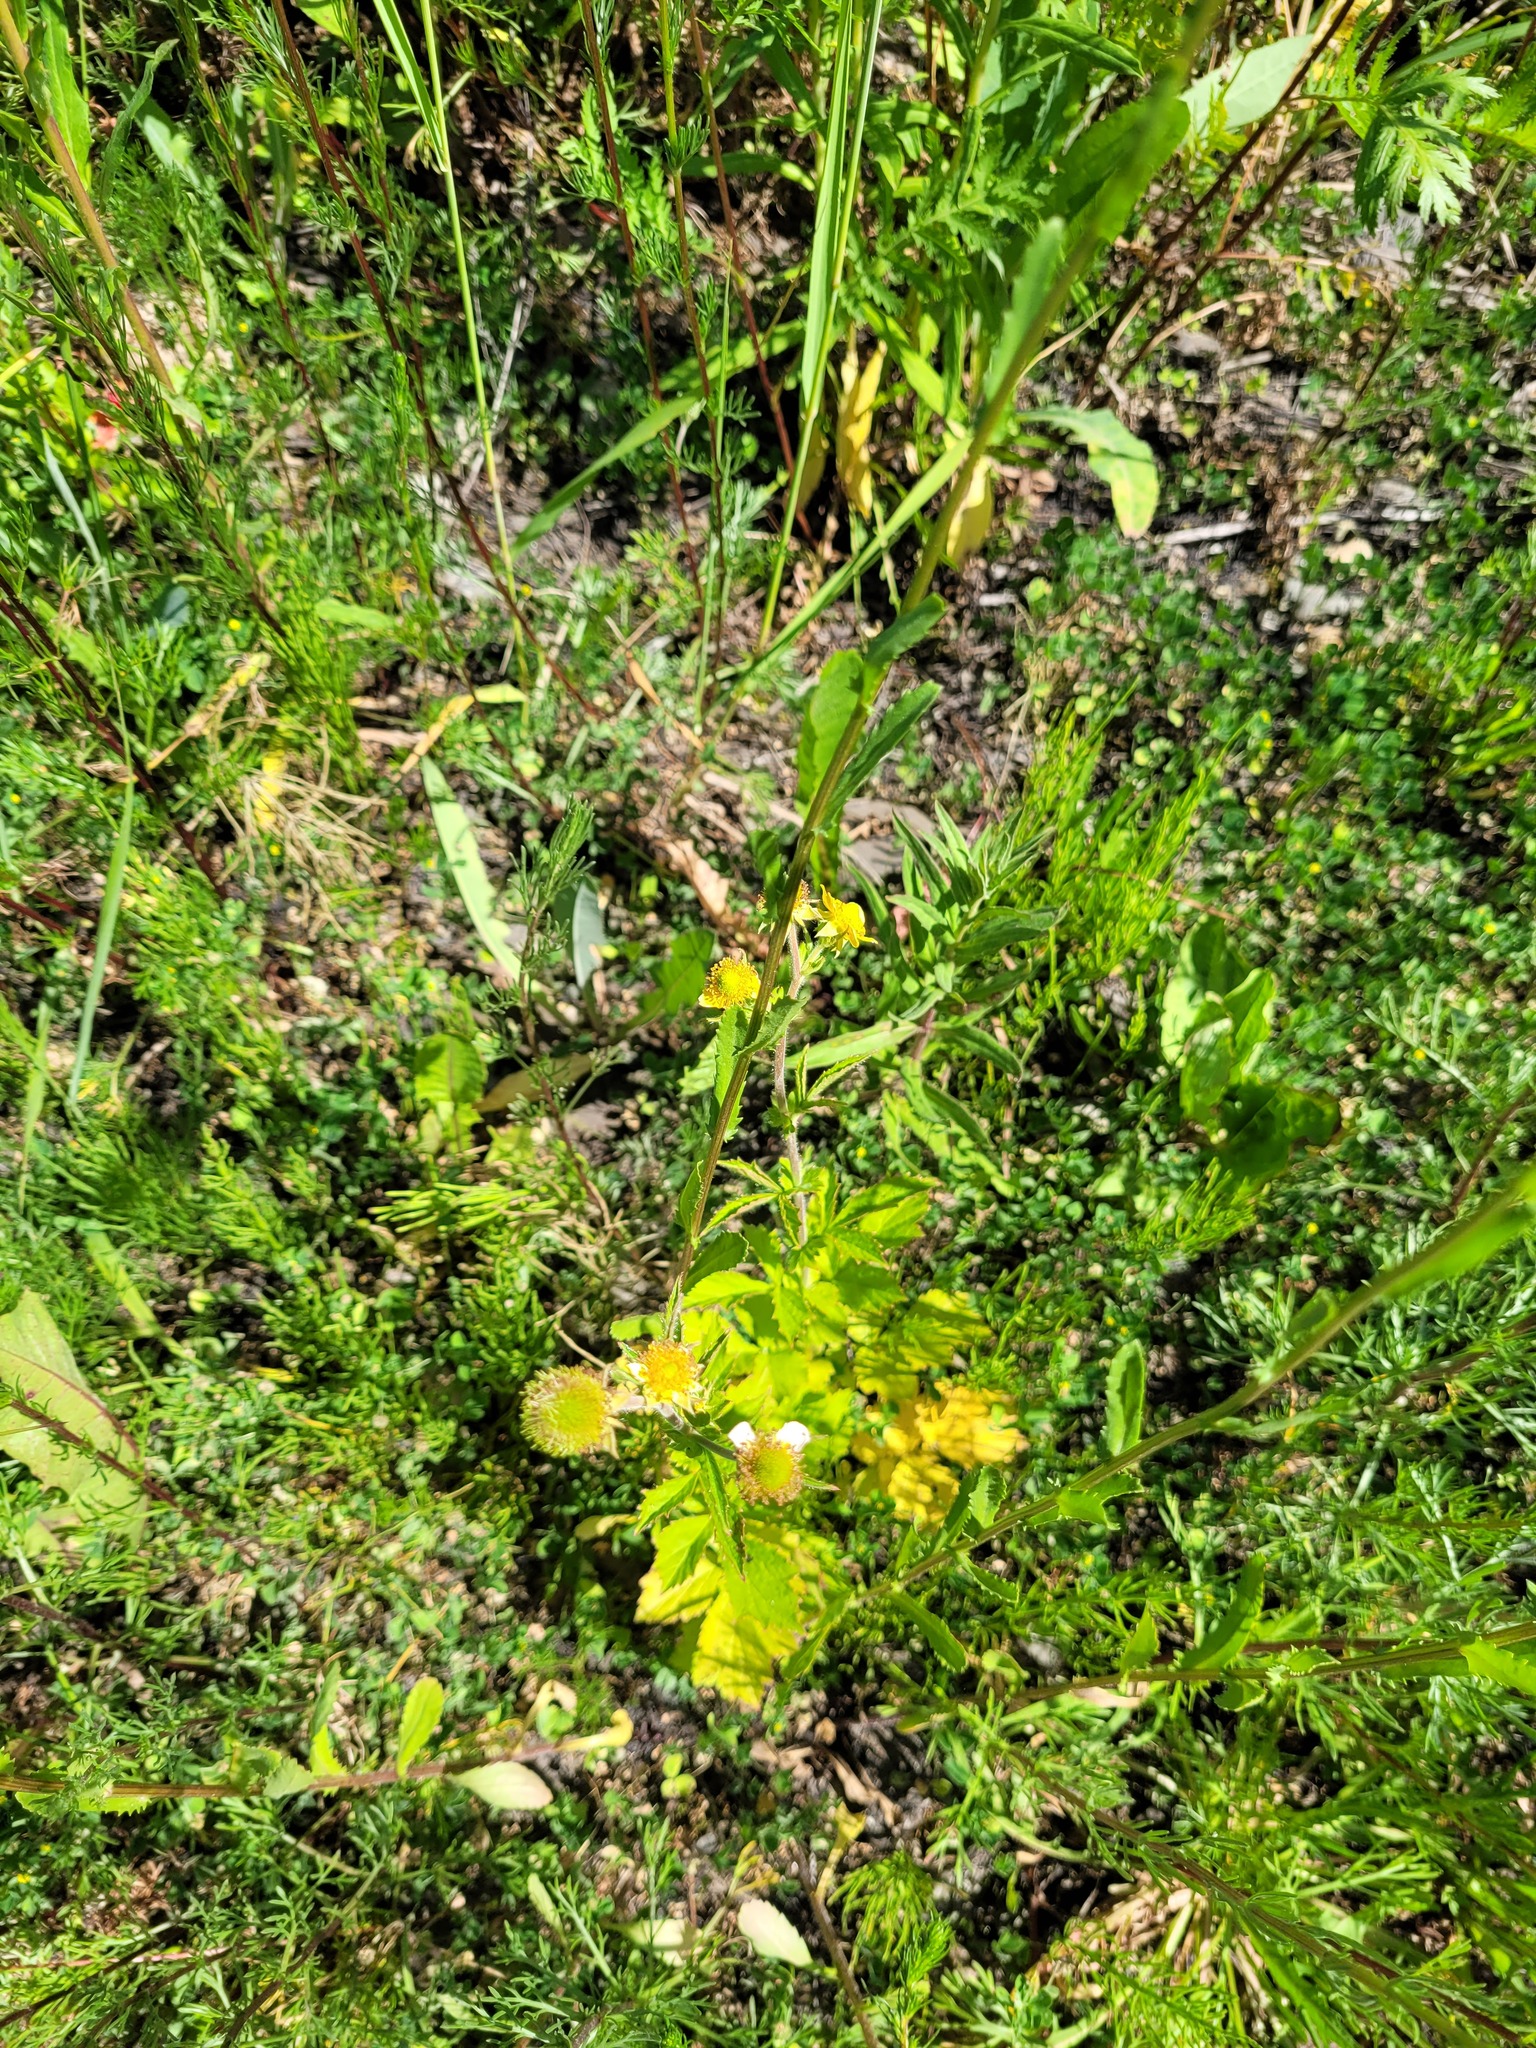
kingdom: Plantae
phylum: Tracheophyta
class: Magnoliopsida
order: Rosales
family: Rosaceae
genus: Geum
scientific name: Geum aleppicum
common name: Yellow avens
